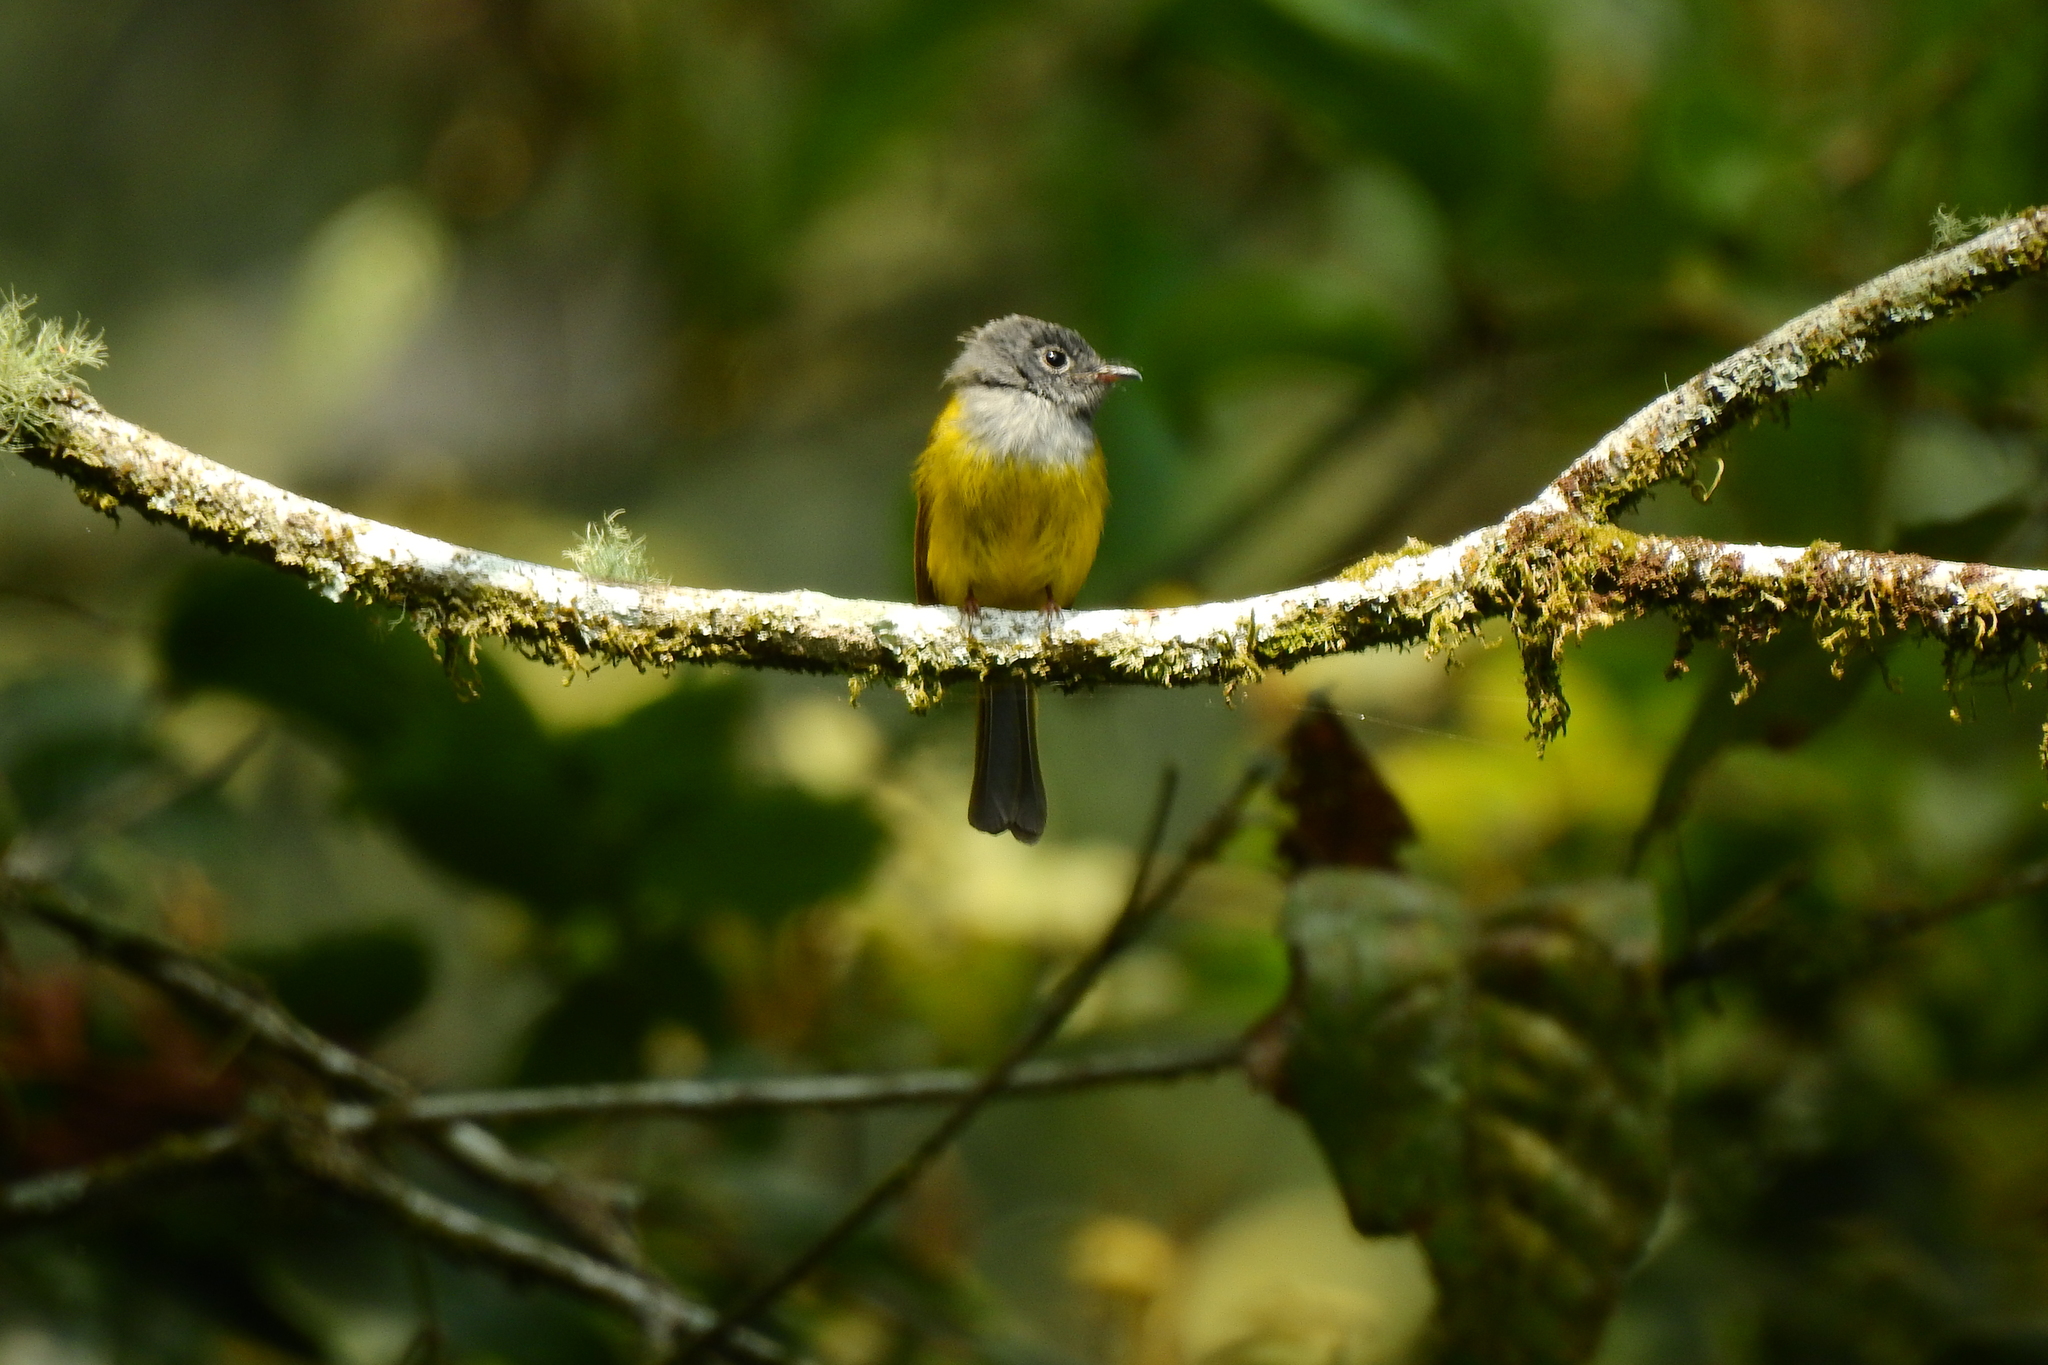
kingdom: Animalia
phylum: Chordata
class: Aves
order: Passeriformes
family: Stenostiridae
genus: Culicicapa
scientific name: Culicicapa ceylonensis
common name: Grey-headed canary-flycatcher
